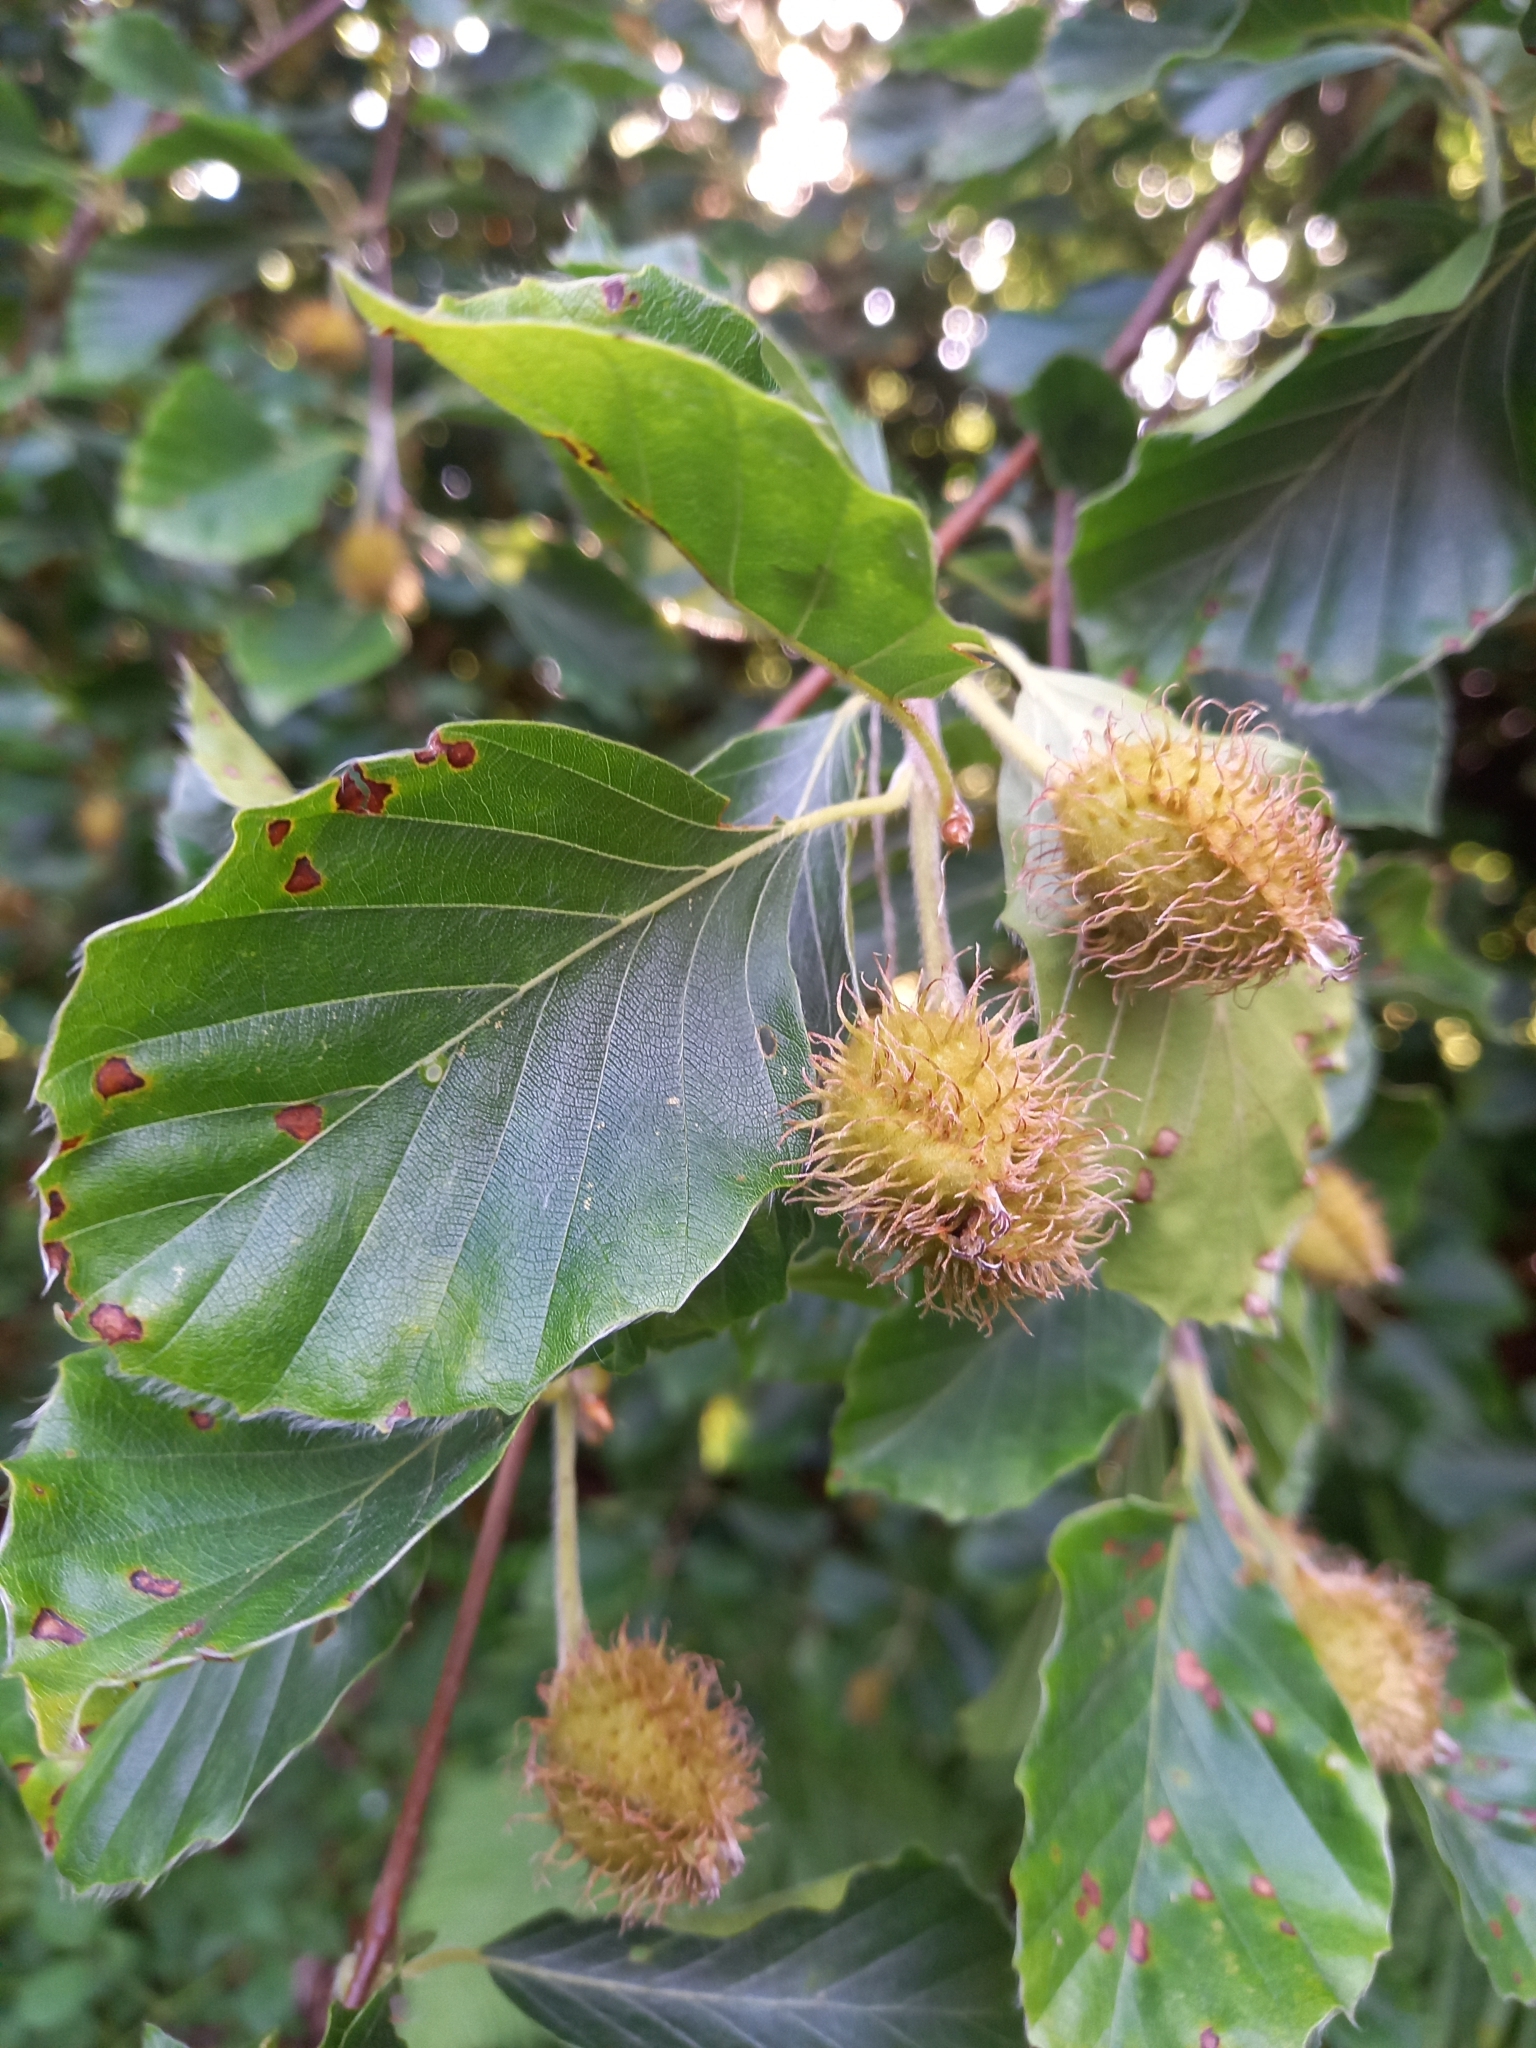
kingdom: Plantae
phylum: Tracheophyta
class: Magnoliopsida
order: Fagales
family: Fagaceae
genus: Fagus
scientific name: Fagus sylvatica
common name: Beech
